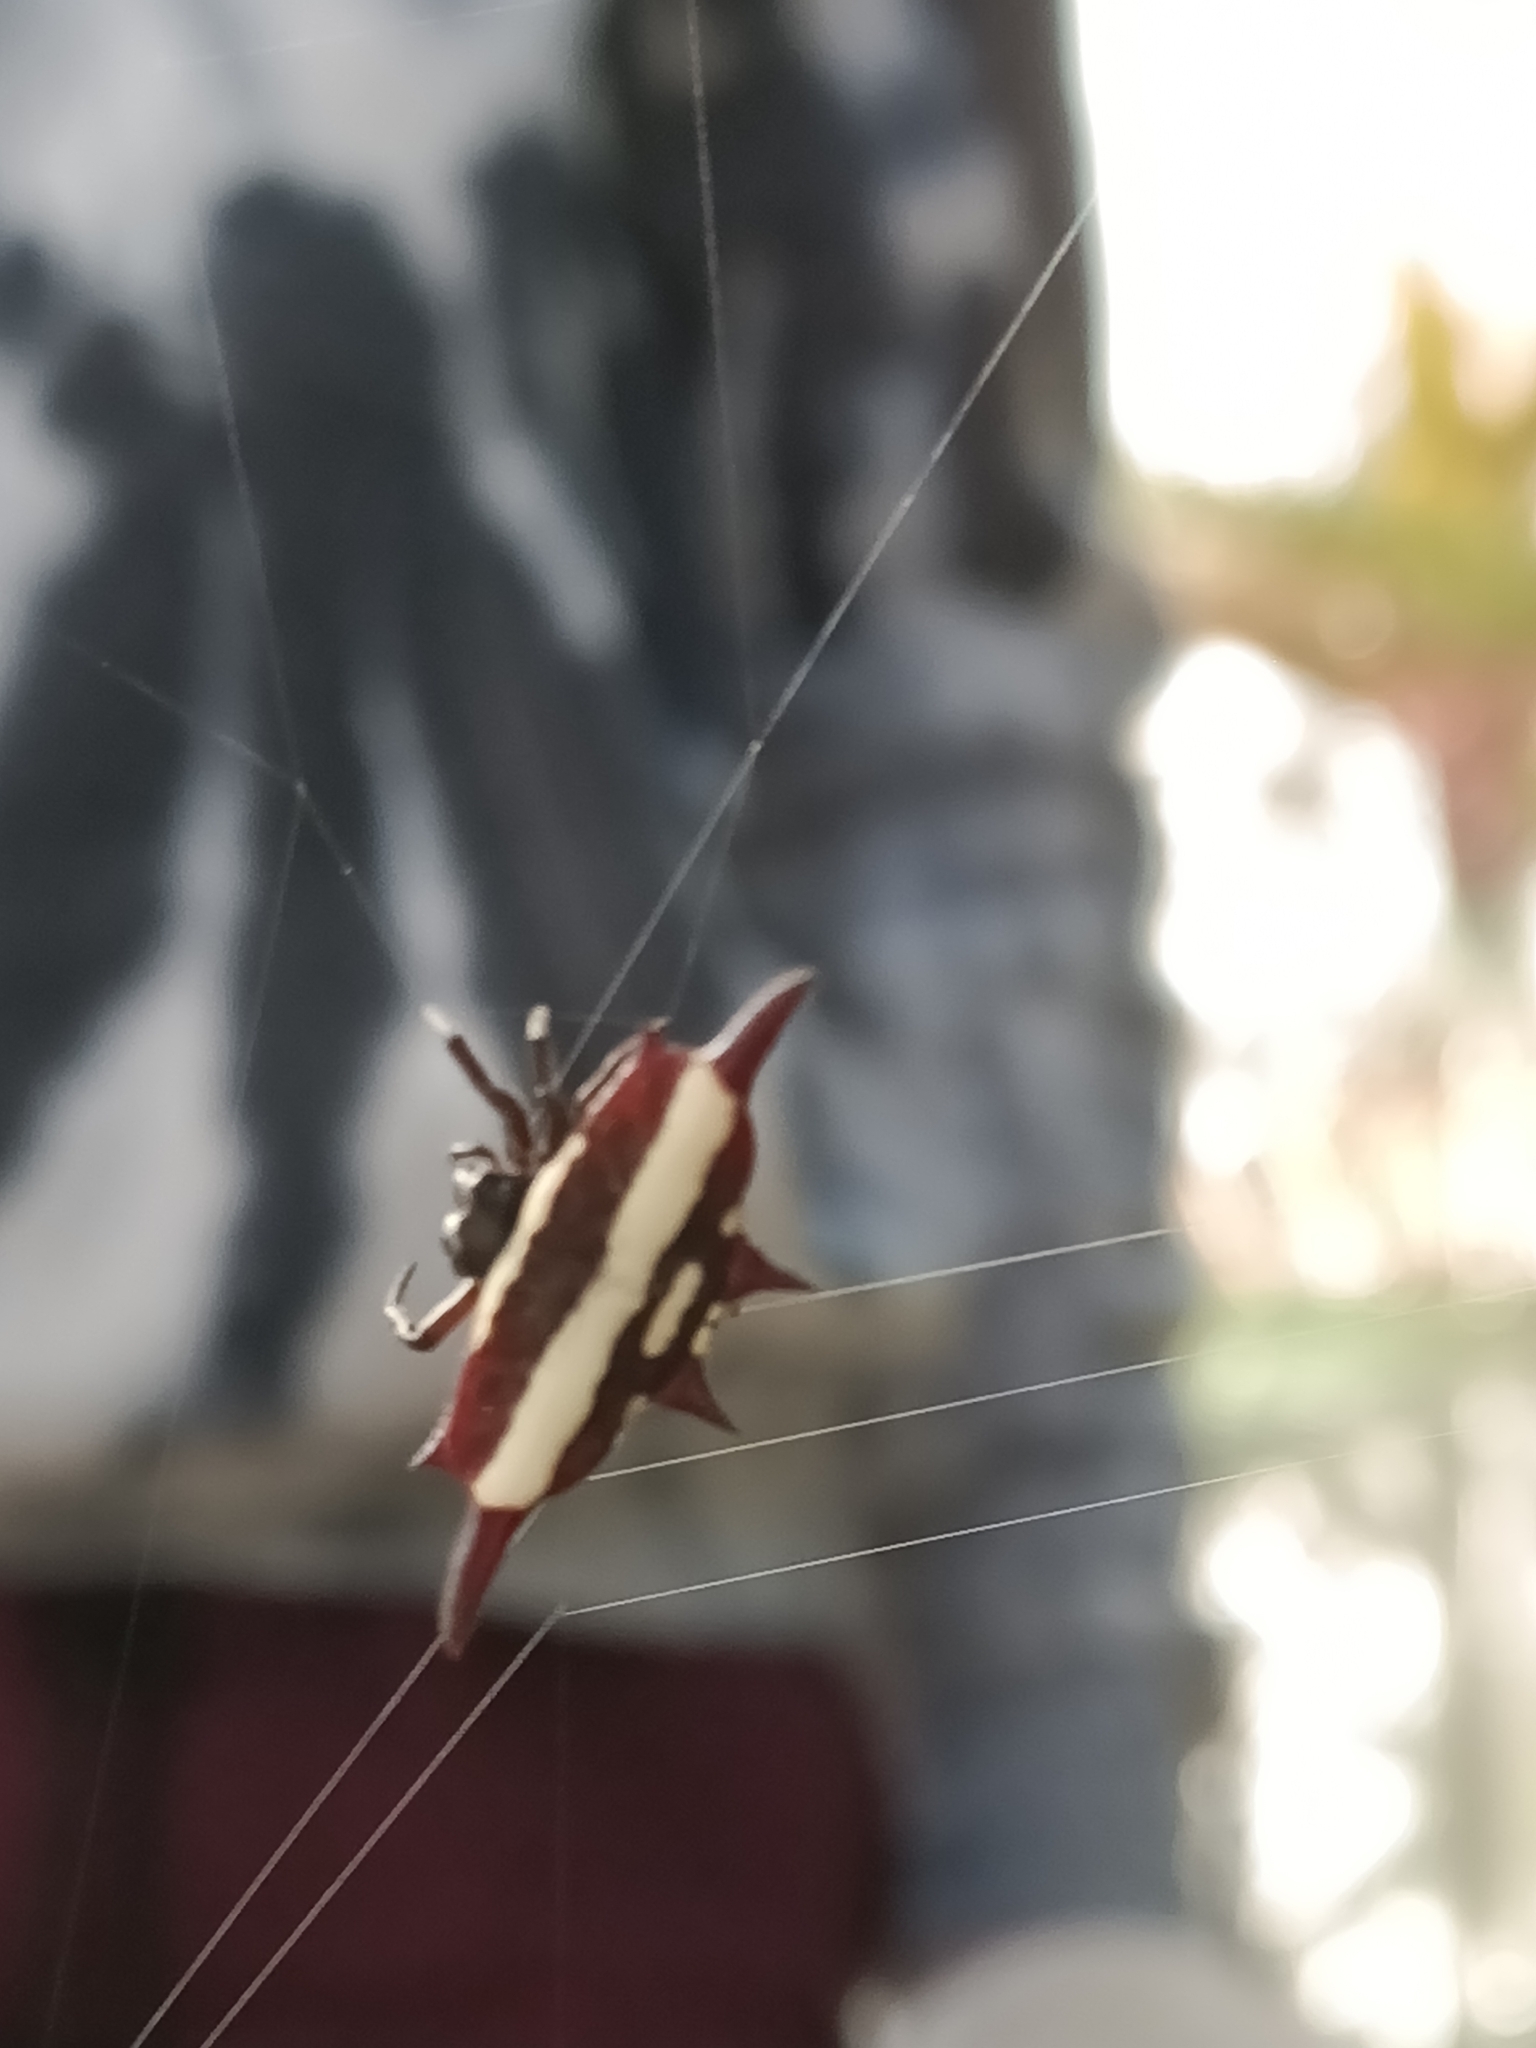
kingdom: Animalia
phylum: Arthropoda
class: Arachnida
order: Araneae
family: Araneidae
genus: Gasteracantha
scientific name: Gasteracantha fornicata
